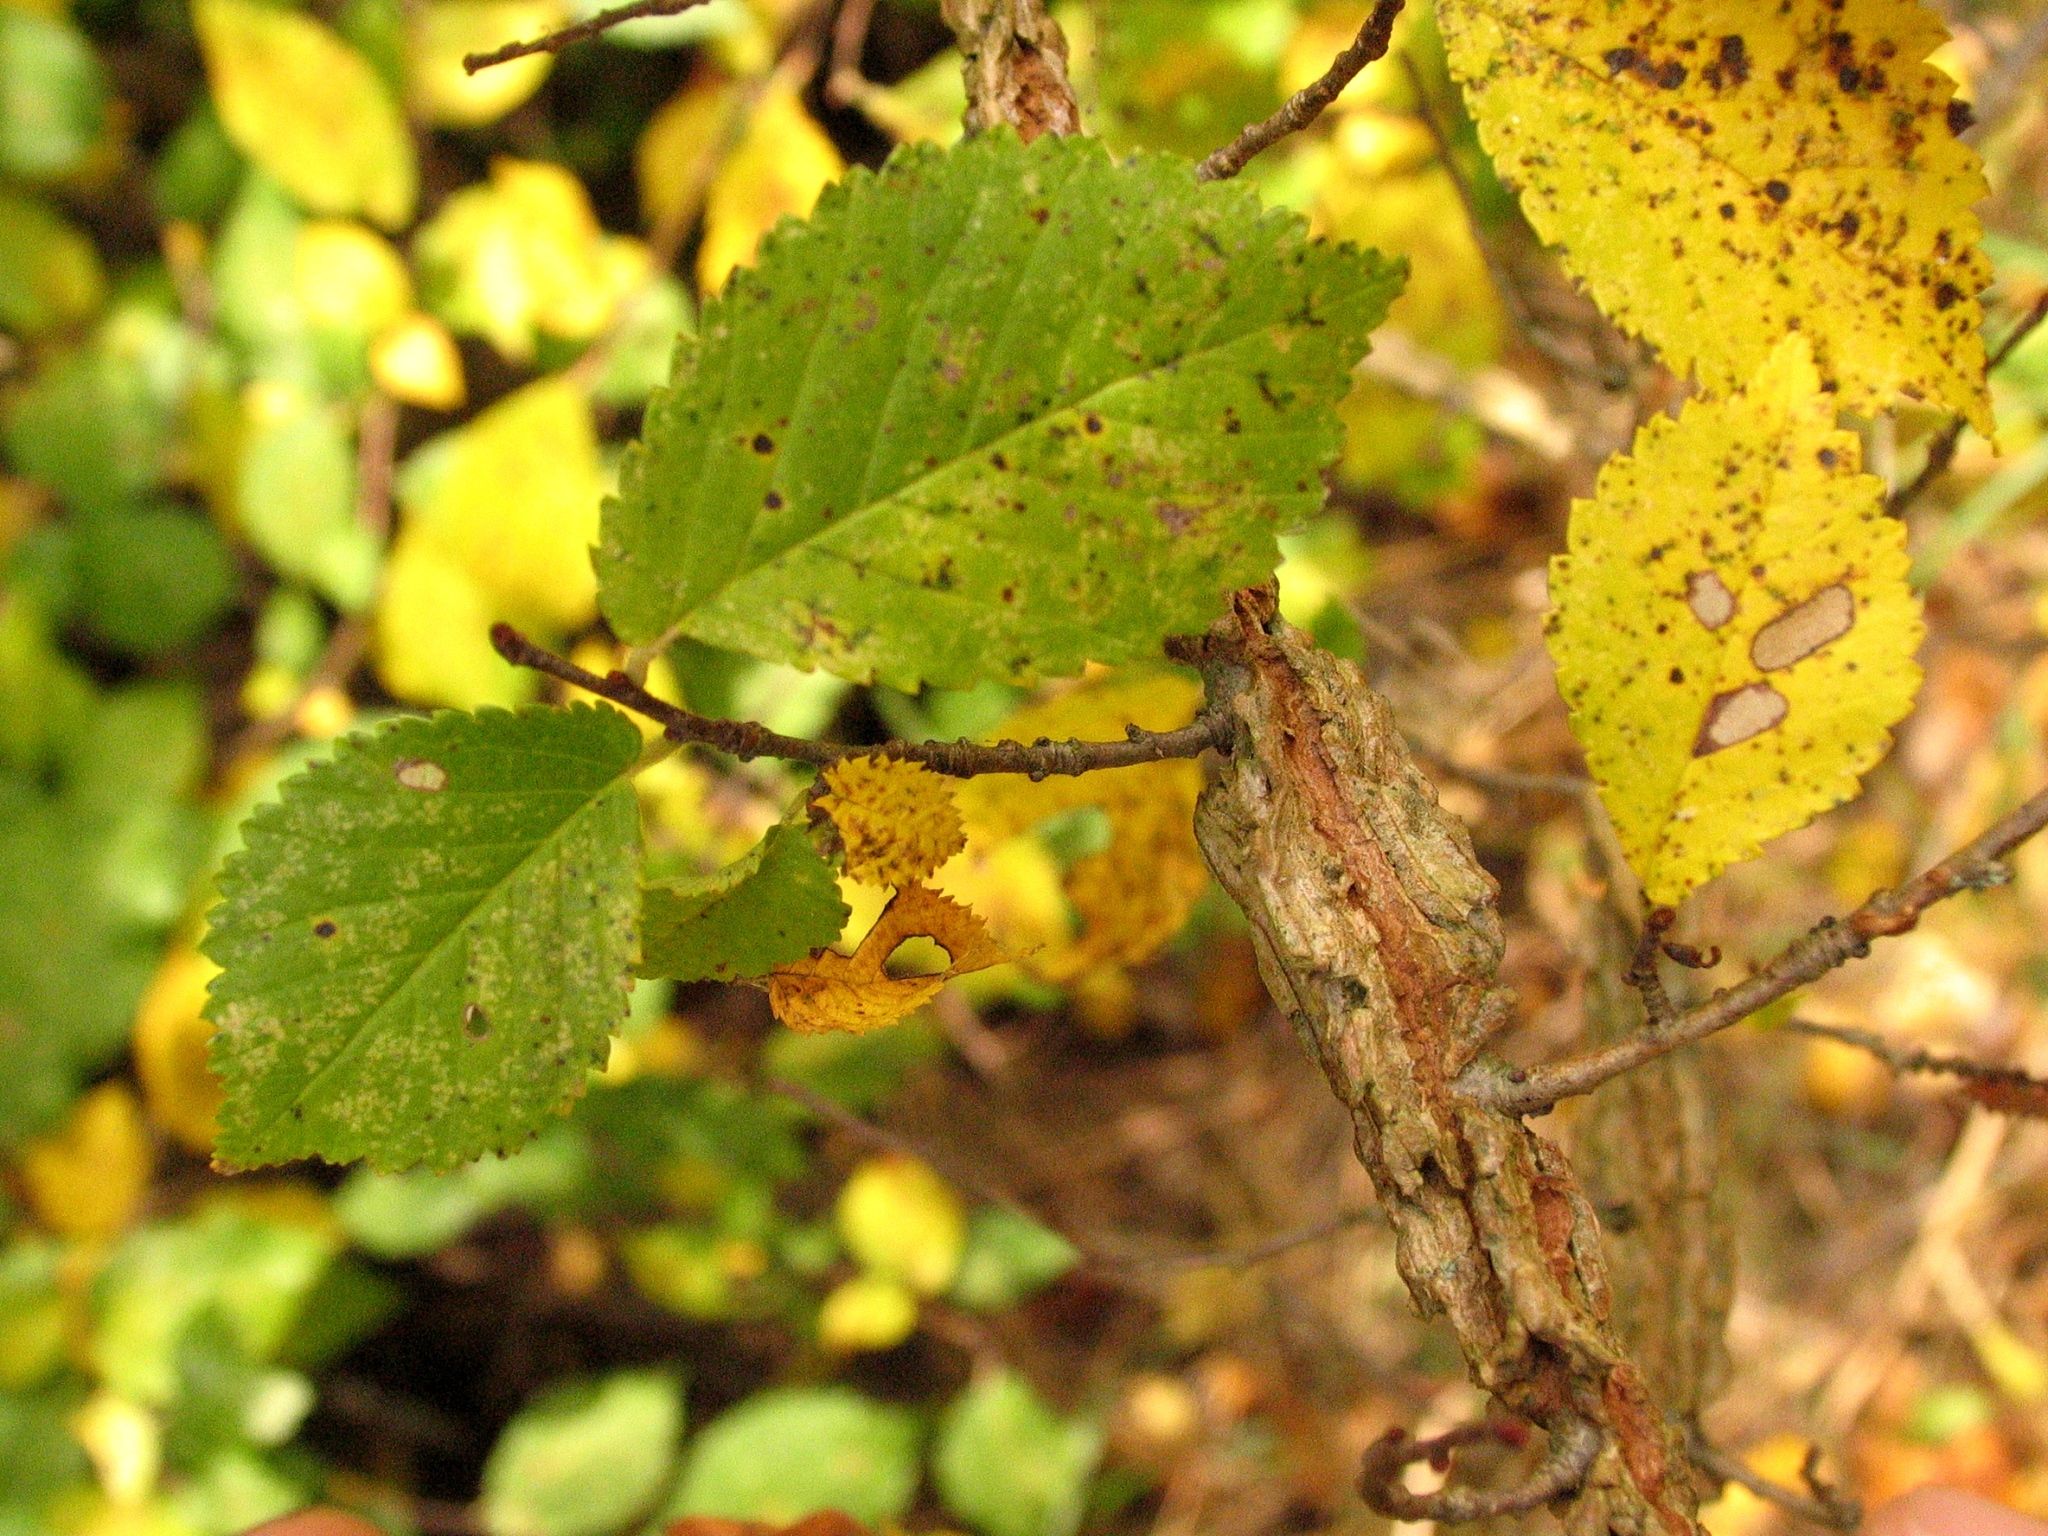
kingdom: Plantae
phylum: Tracheophyta
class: Magnoliopsida
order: Rosales
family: Ulmaceae
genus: Ulmus
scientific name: Ulmus minor
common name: Small-leaved elm
